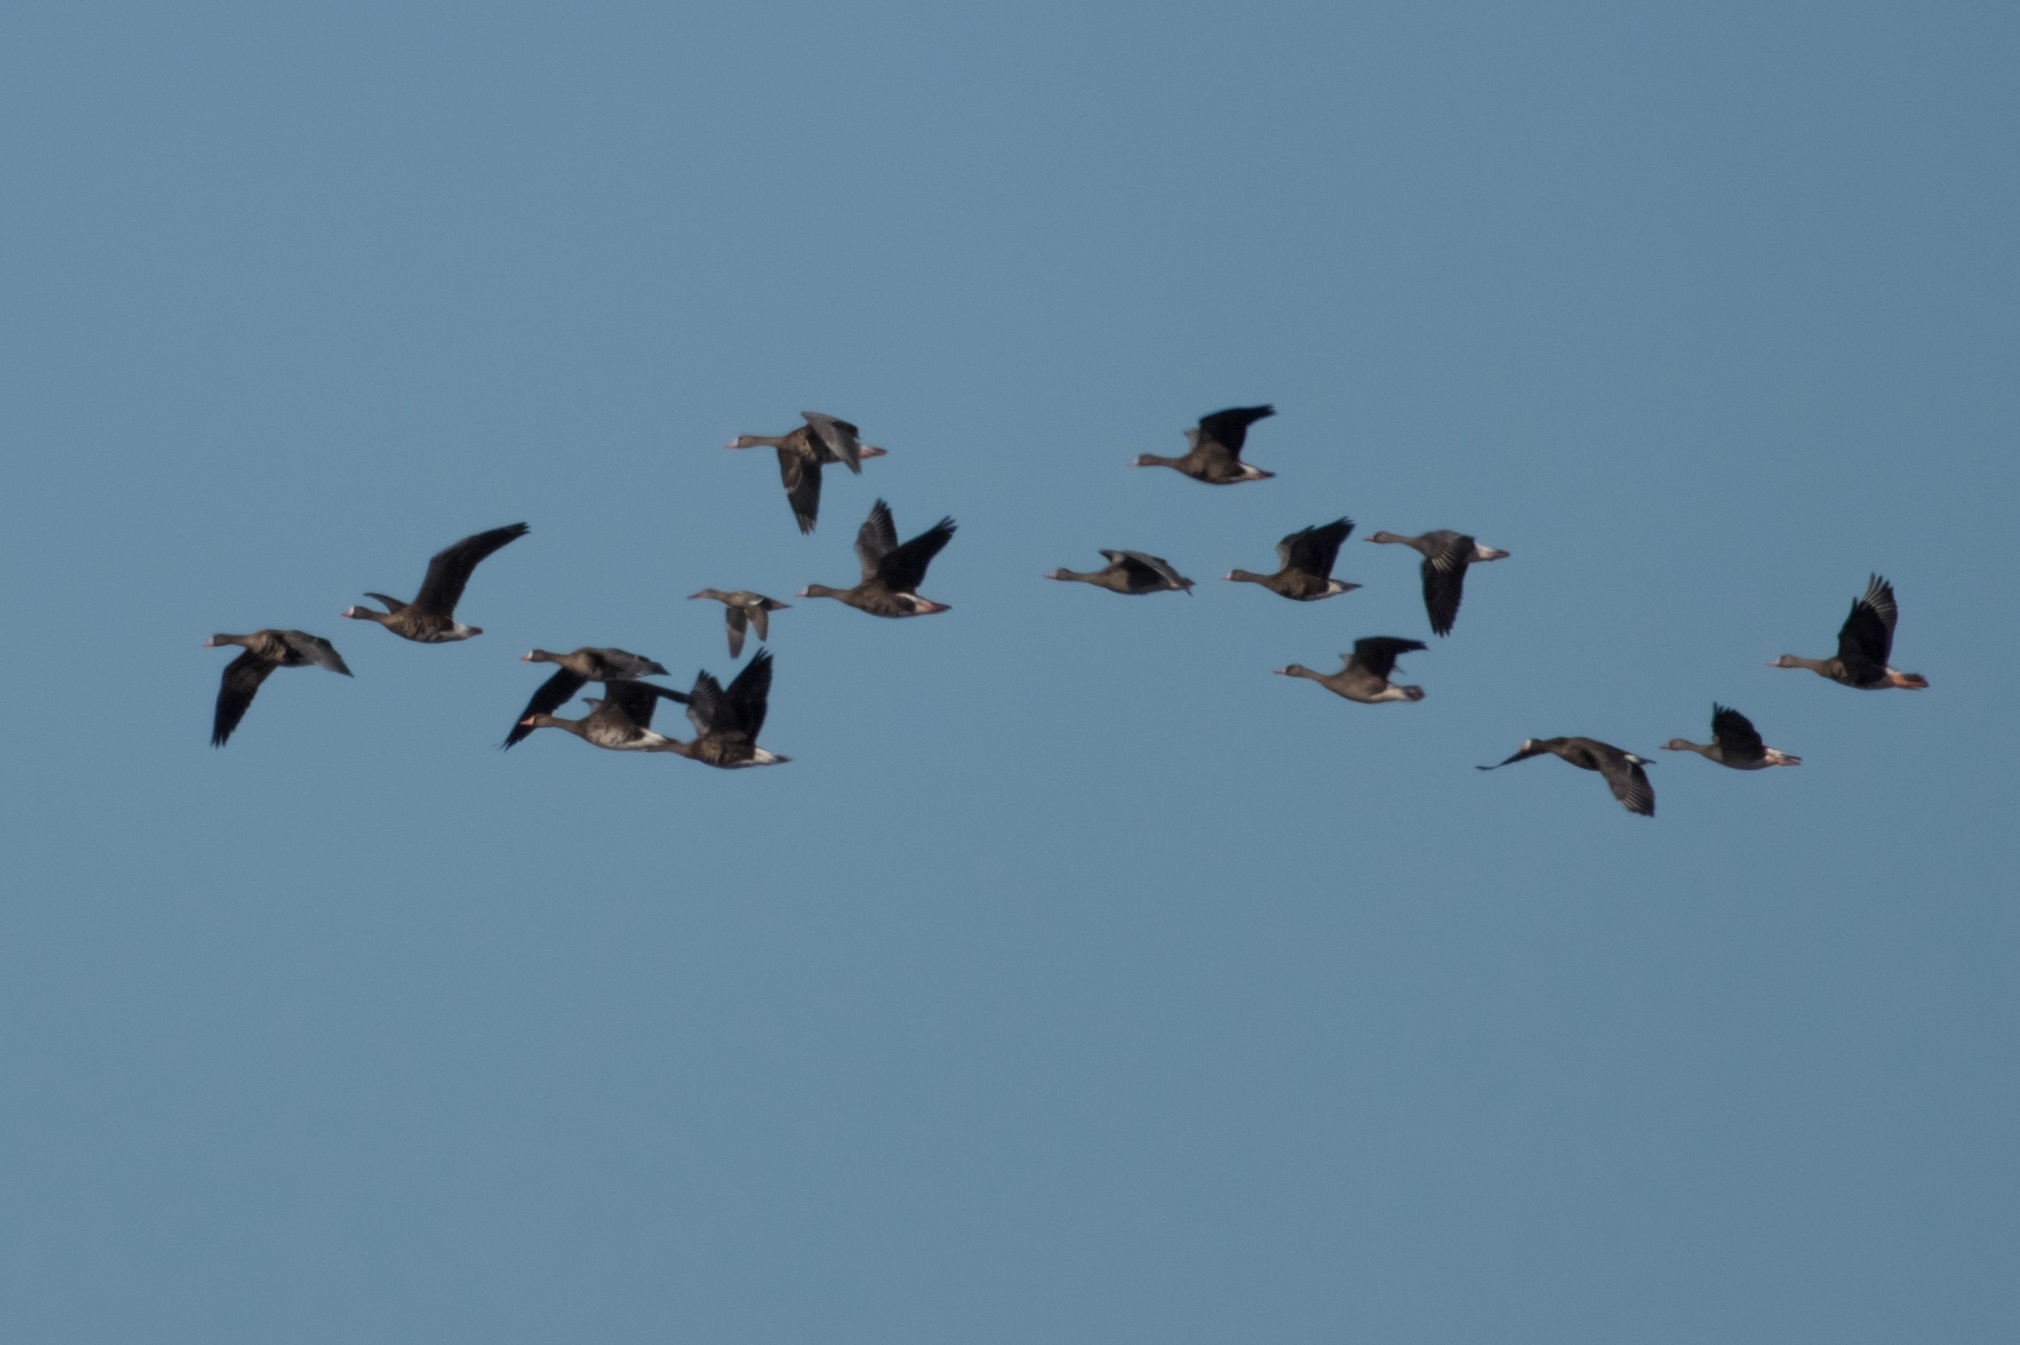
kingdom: Animalia
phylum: Chordata
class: Aves
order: Anseriformes
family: Anatidae
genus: Anser
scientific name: Anser albifrons
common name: Greater white-fronted goose
